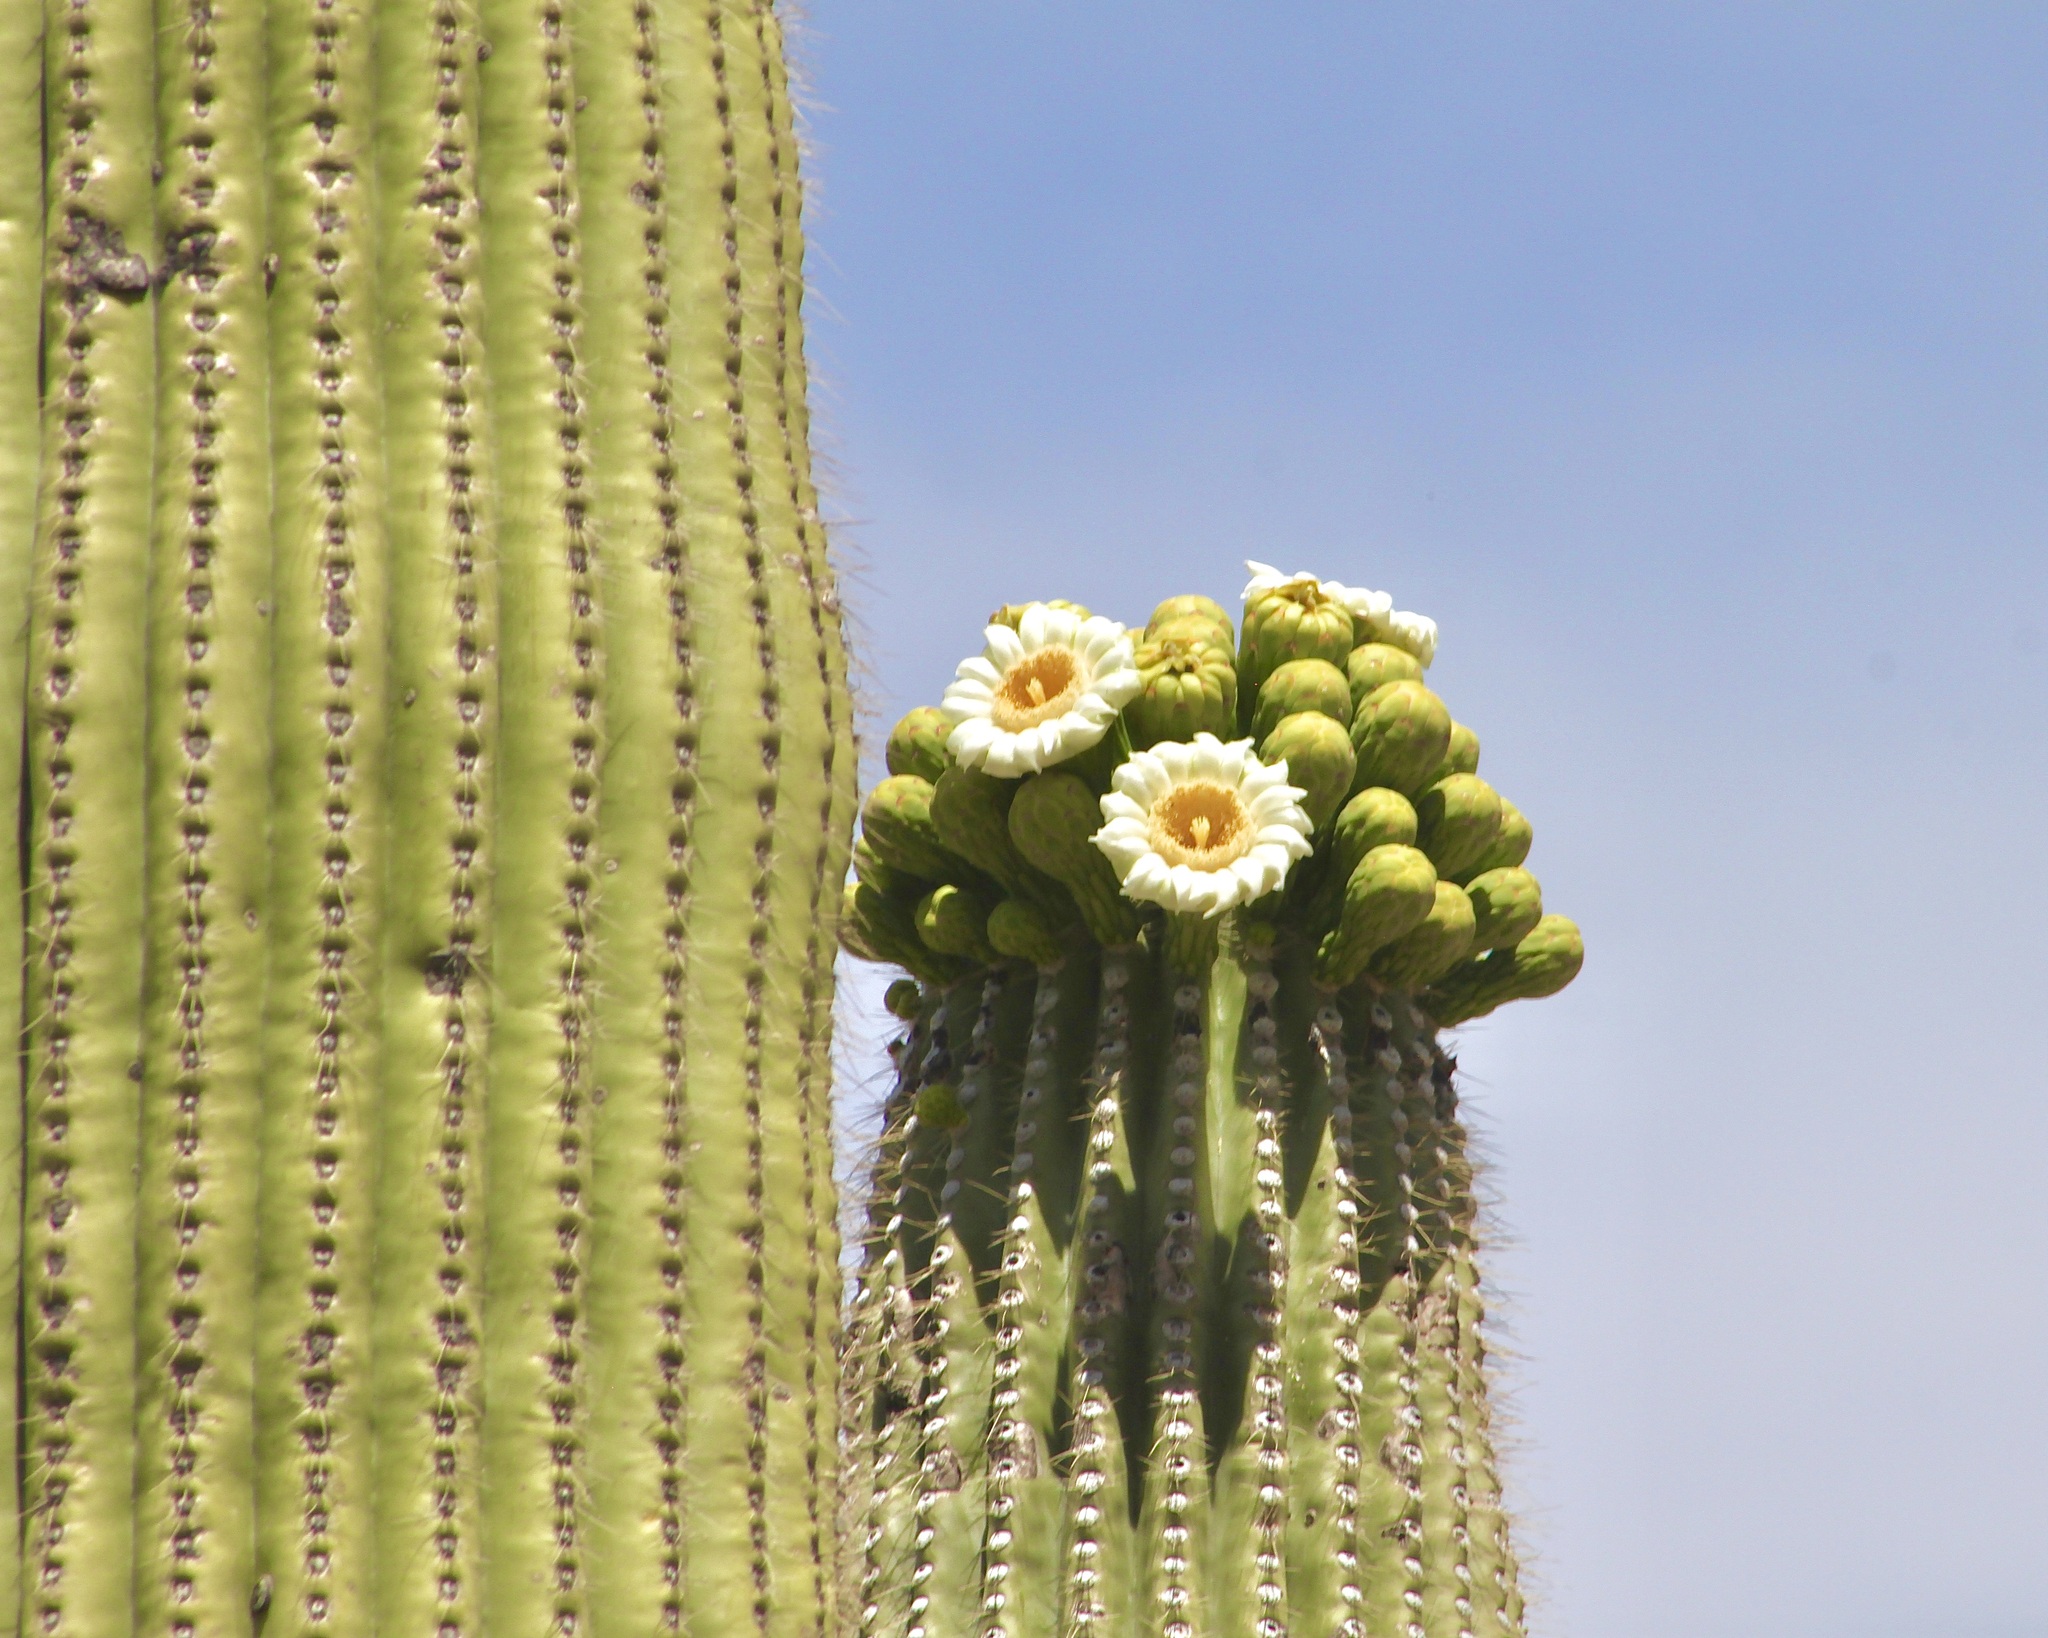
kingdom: Plantae
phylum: Tracheophyta
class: Magnoliopsida
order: Caryophyllales
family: Cactaceae
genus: Carnegiea
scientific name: Carnegiea gigantea
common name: Saguaro
